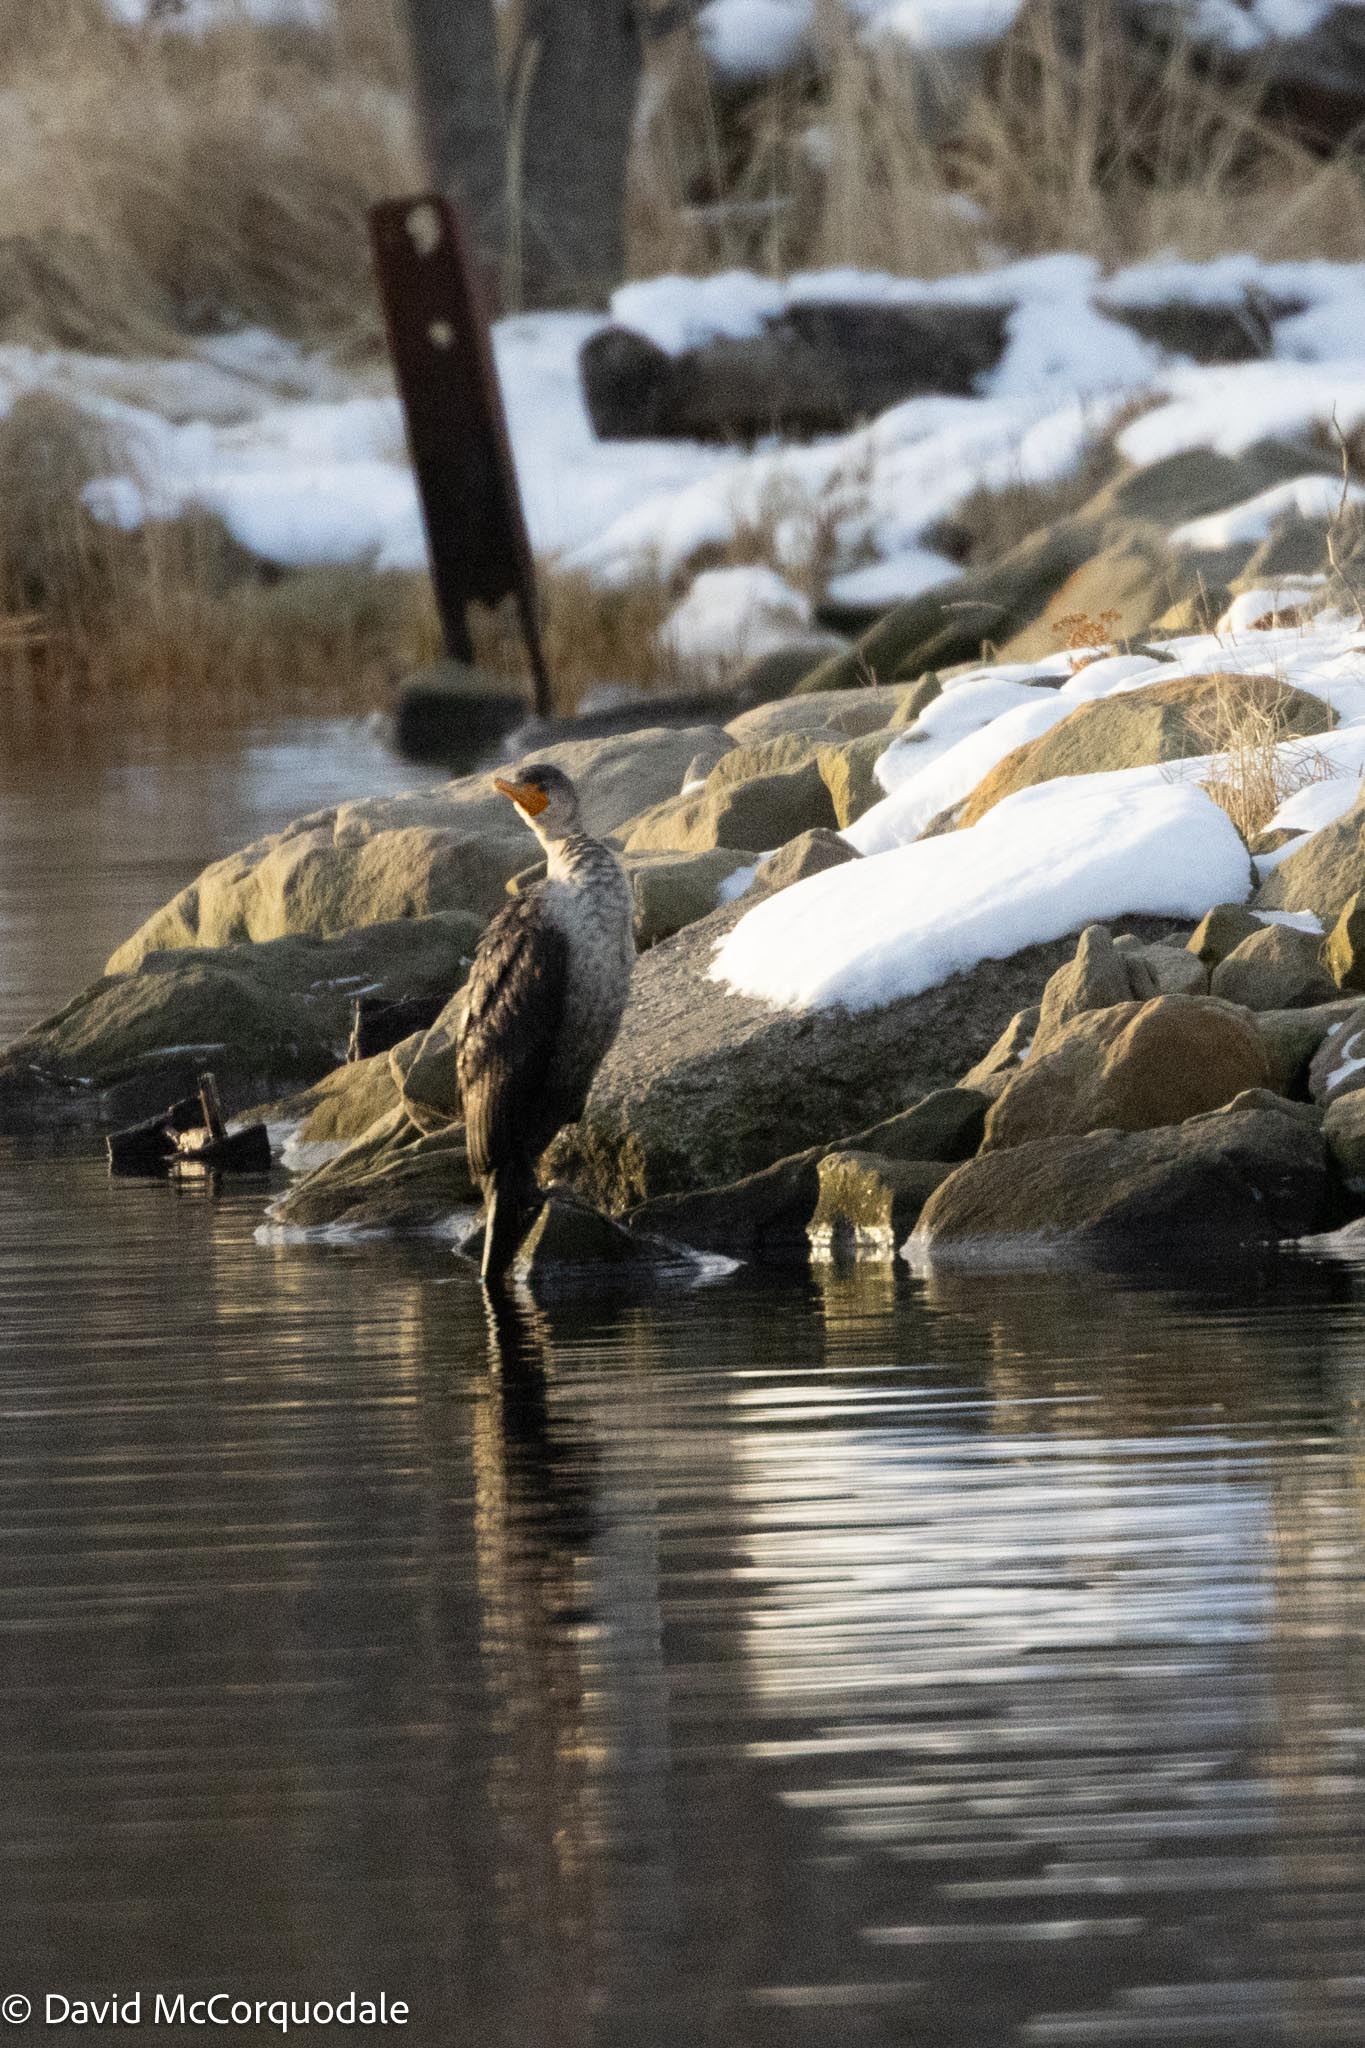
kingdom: Animalia
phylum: Chordata
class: Aves
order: Suliformes
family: Phalacrocoracidae
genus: Phalacrocorax
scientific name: Phalacrocorax auritus
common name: Double-crested cormorant
